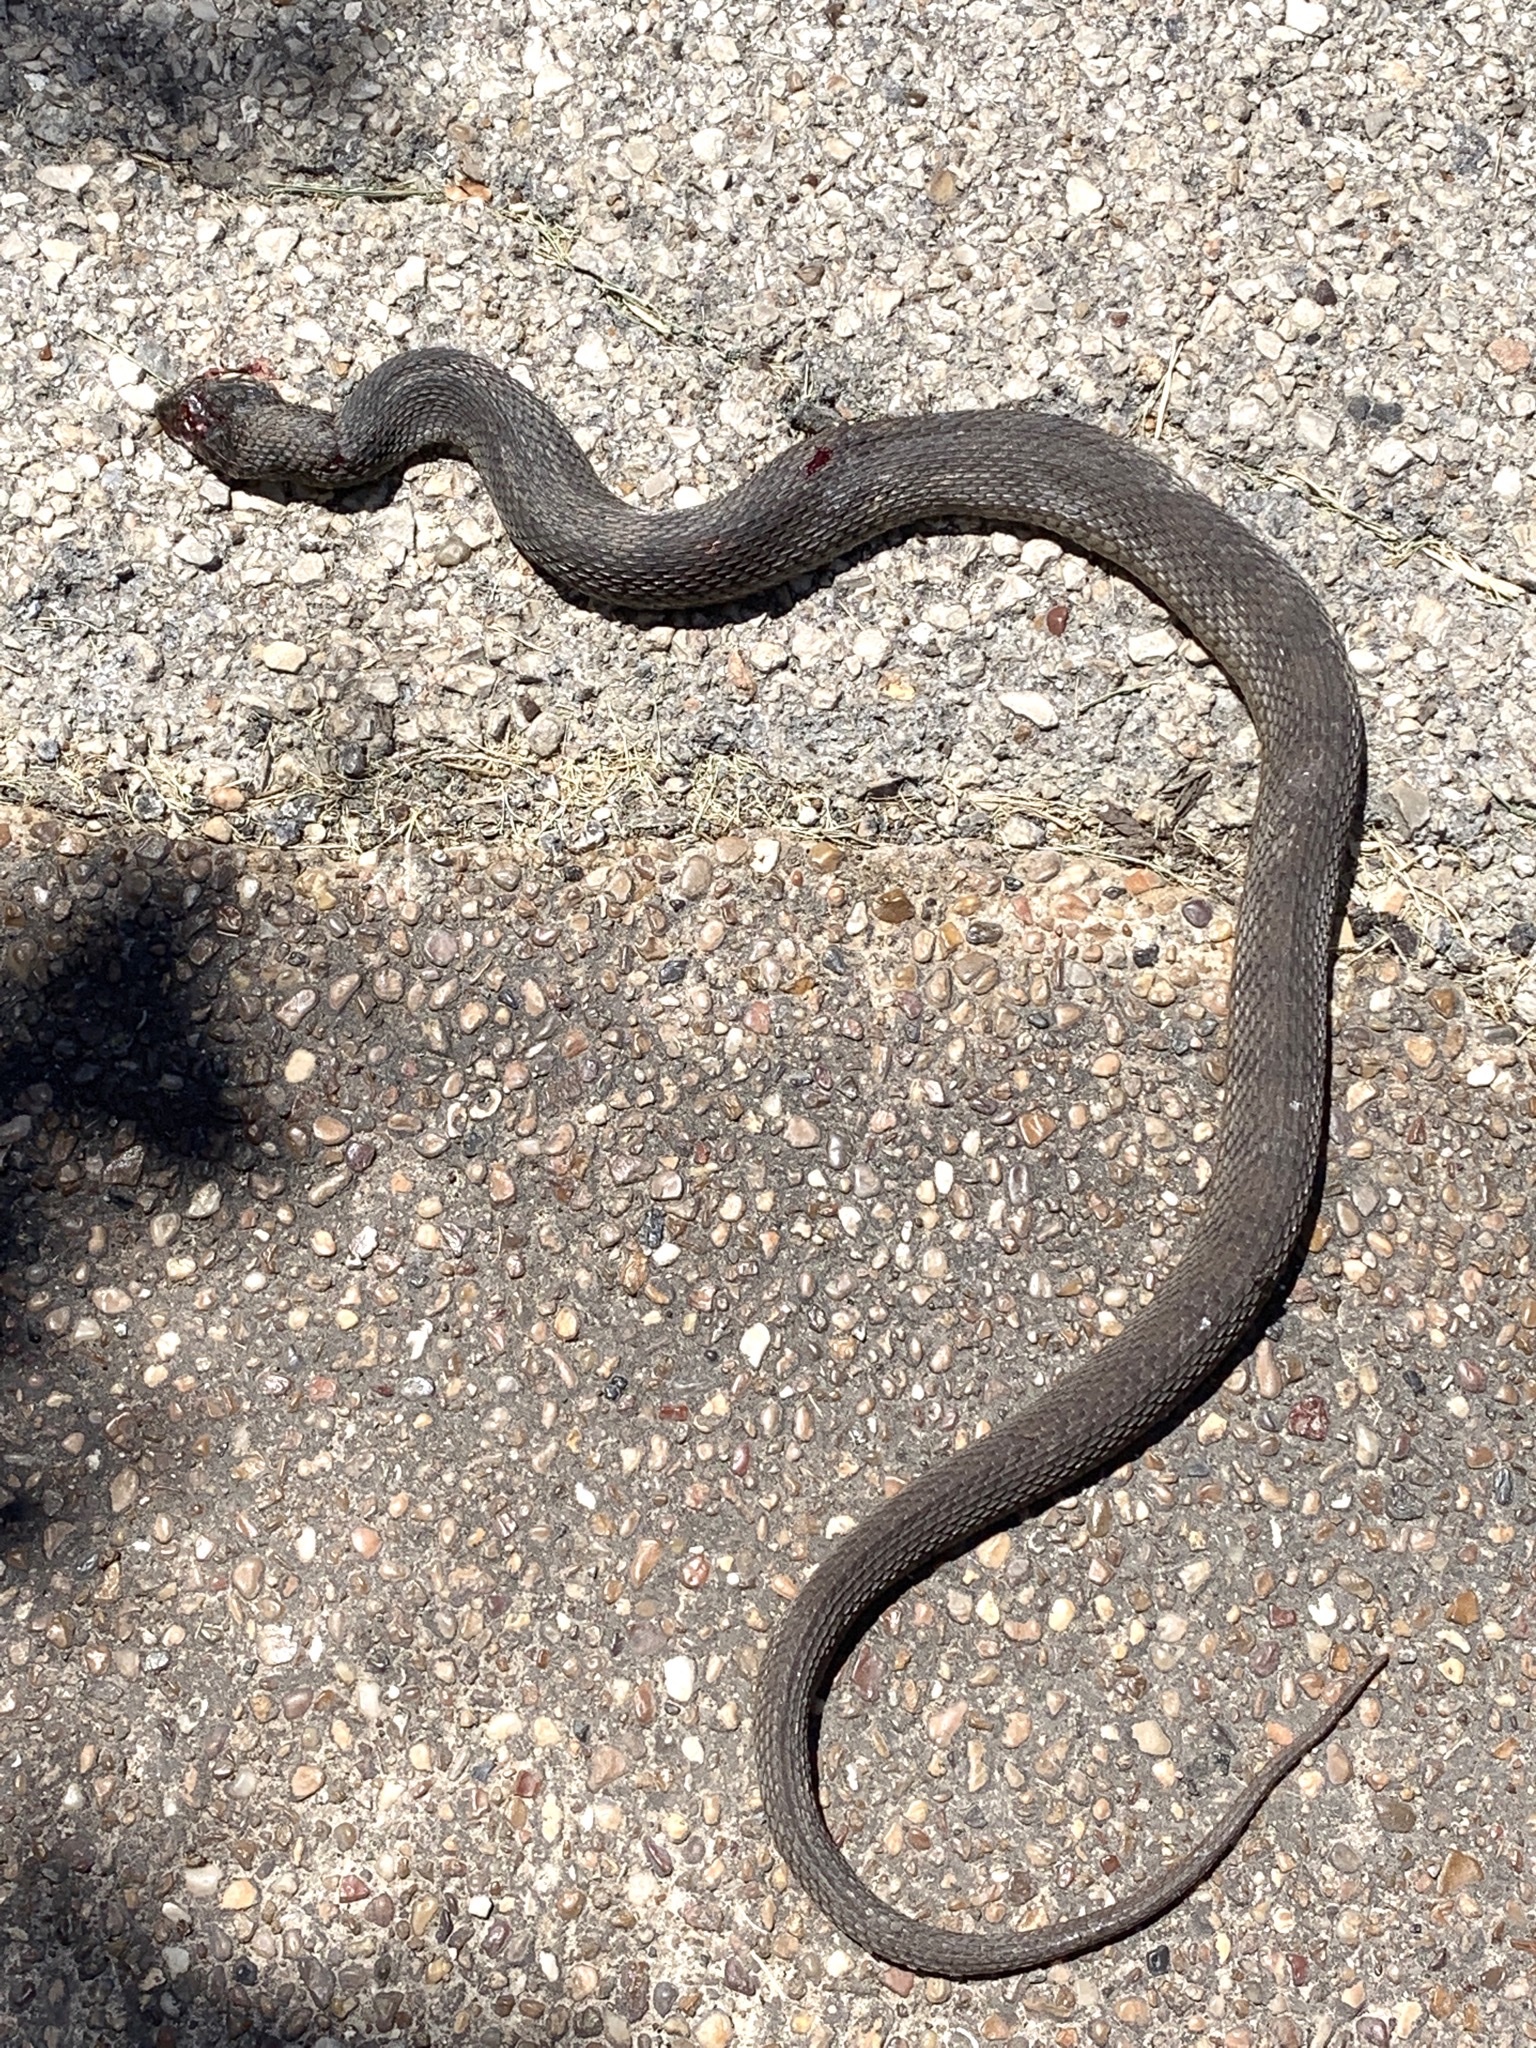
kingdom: Animalia
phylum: Chordata
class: Squamata
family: Colubridae
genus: Nerodia
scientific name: Nerodia erythrogaster
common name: Plainbelly water snake
